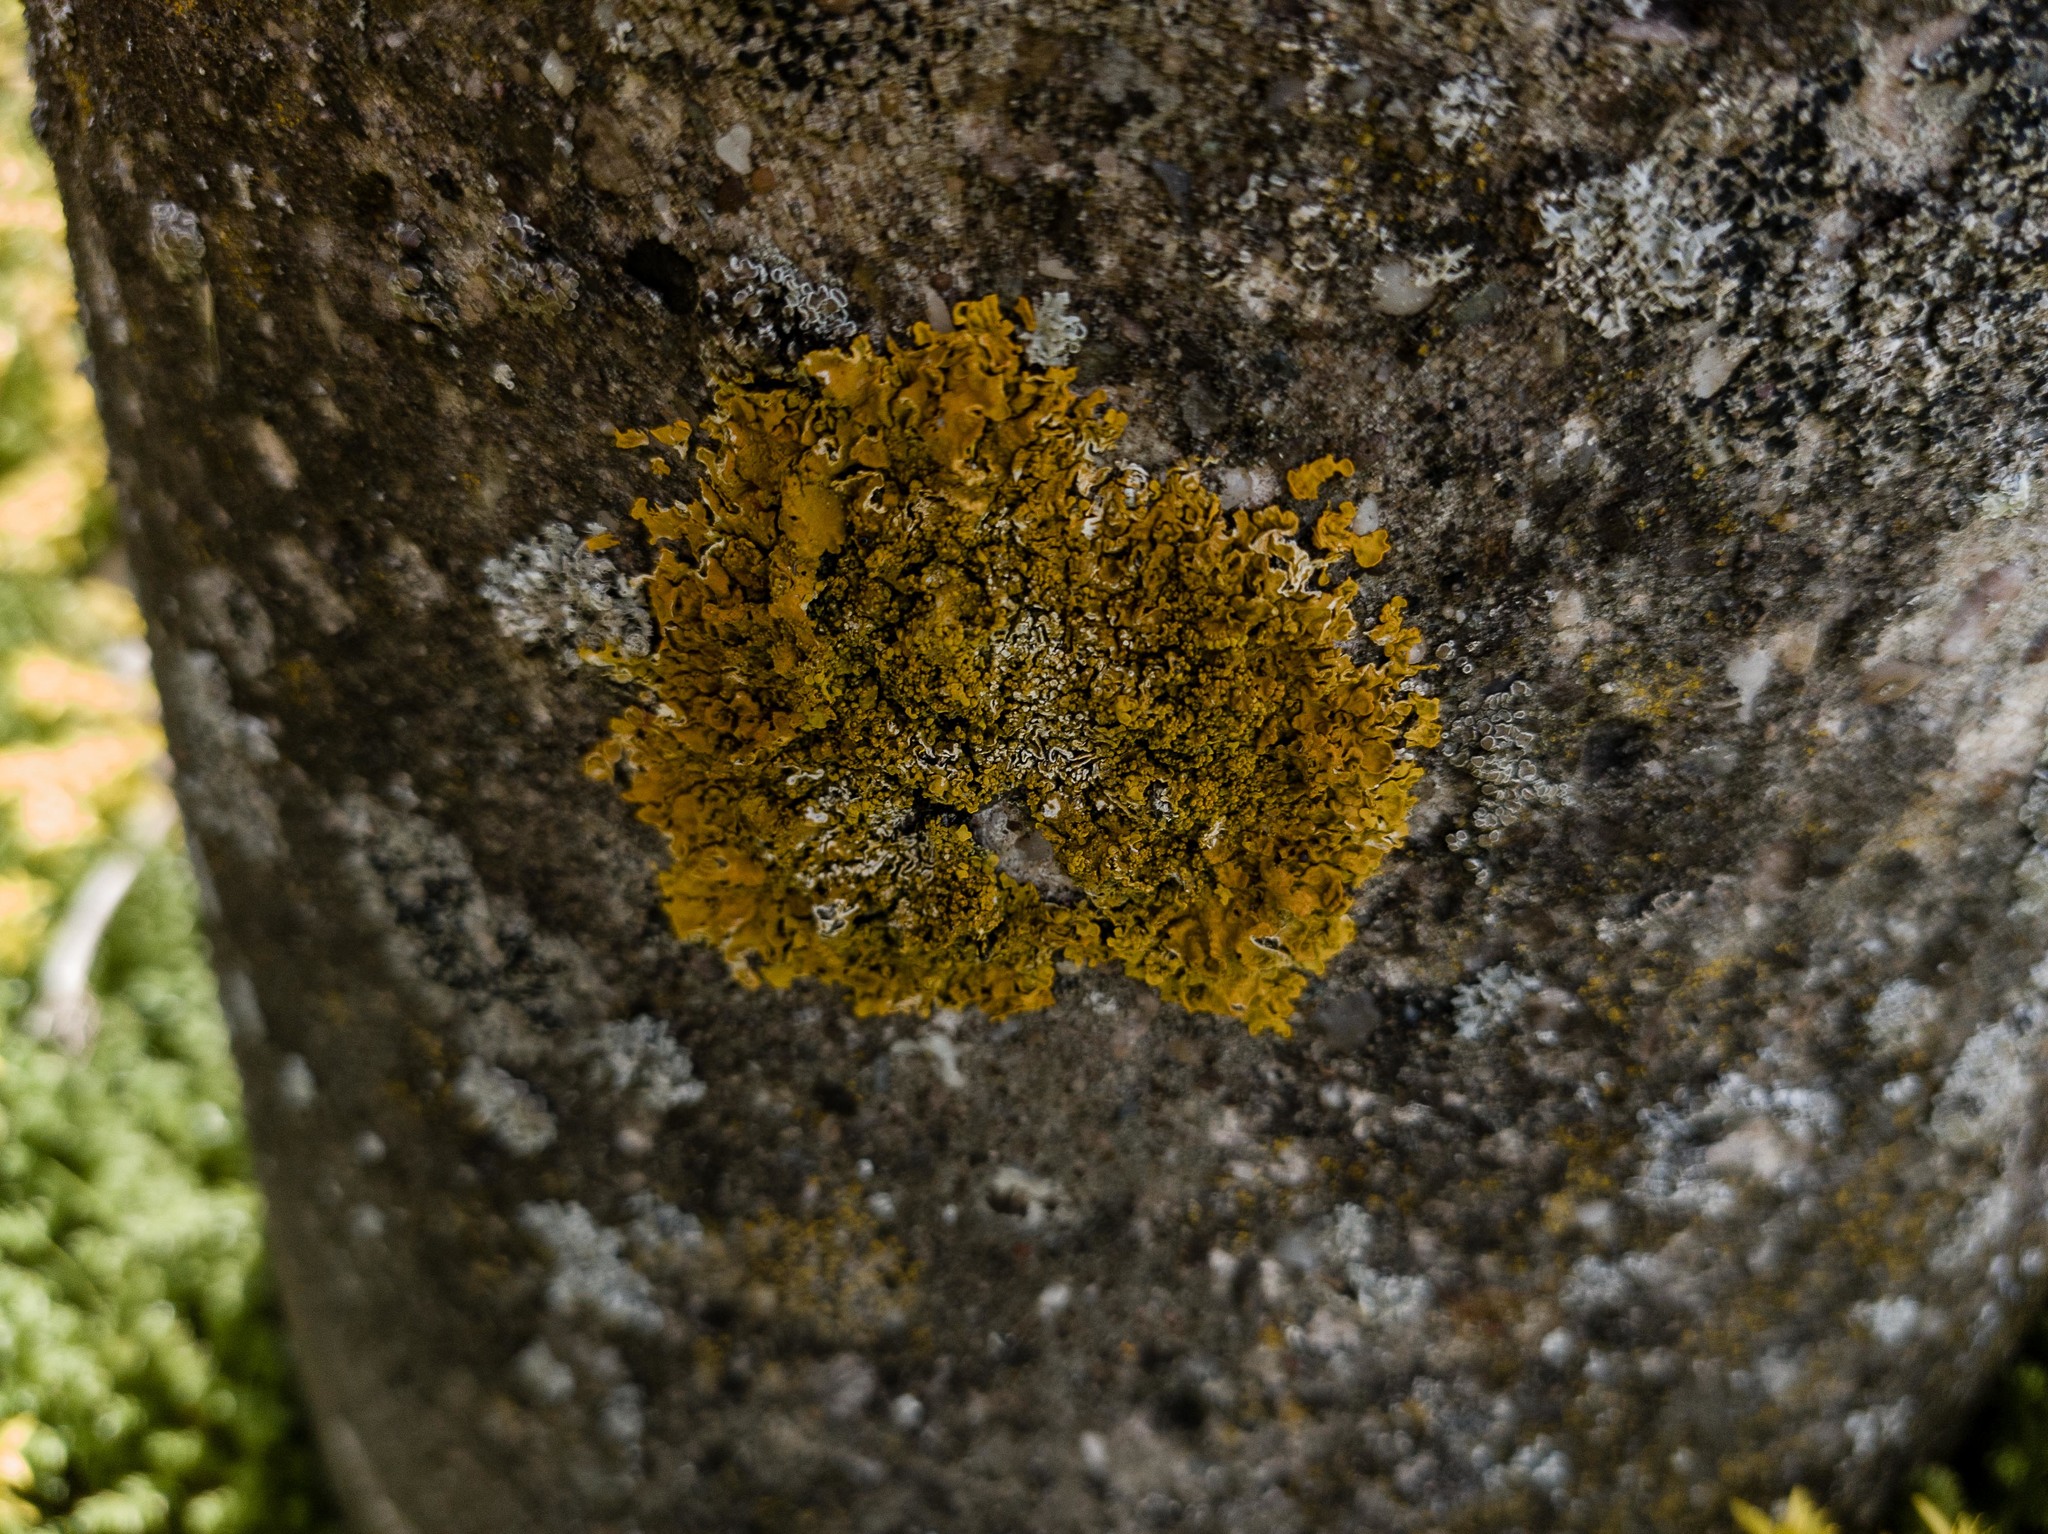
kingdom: Fungi
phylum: Ascomycota
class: Lecanoromycetes
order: Teloschistales
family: Teloschistaceae
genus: Xanthoria
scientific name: Xanthoria calcicola
